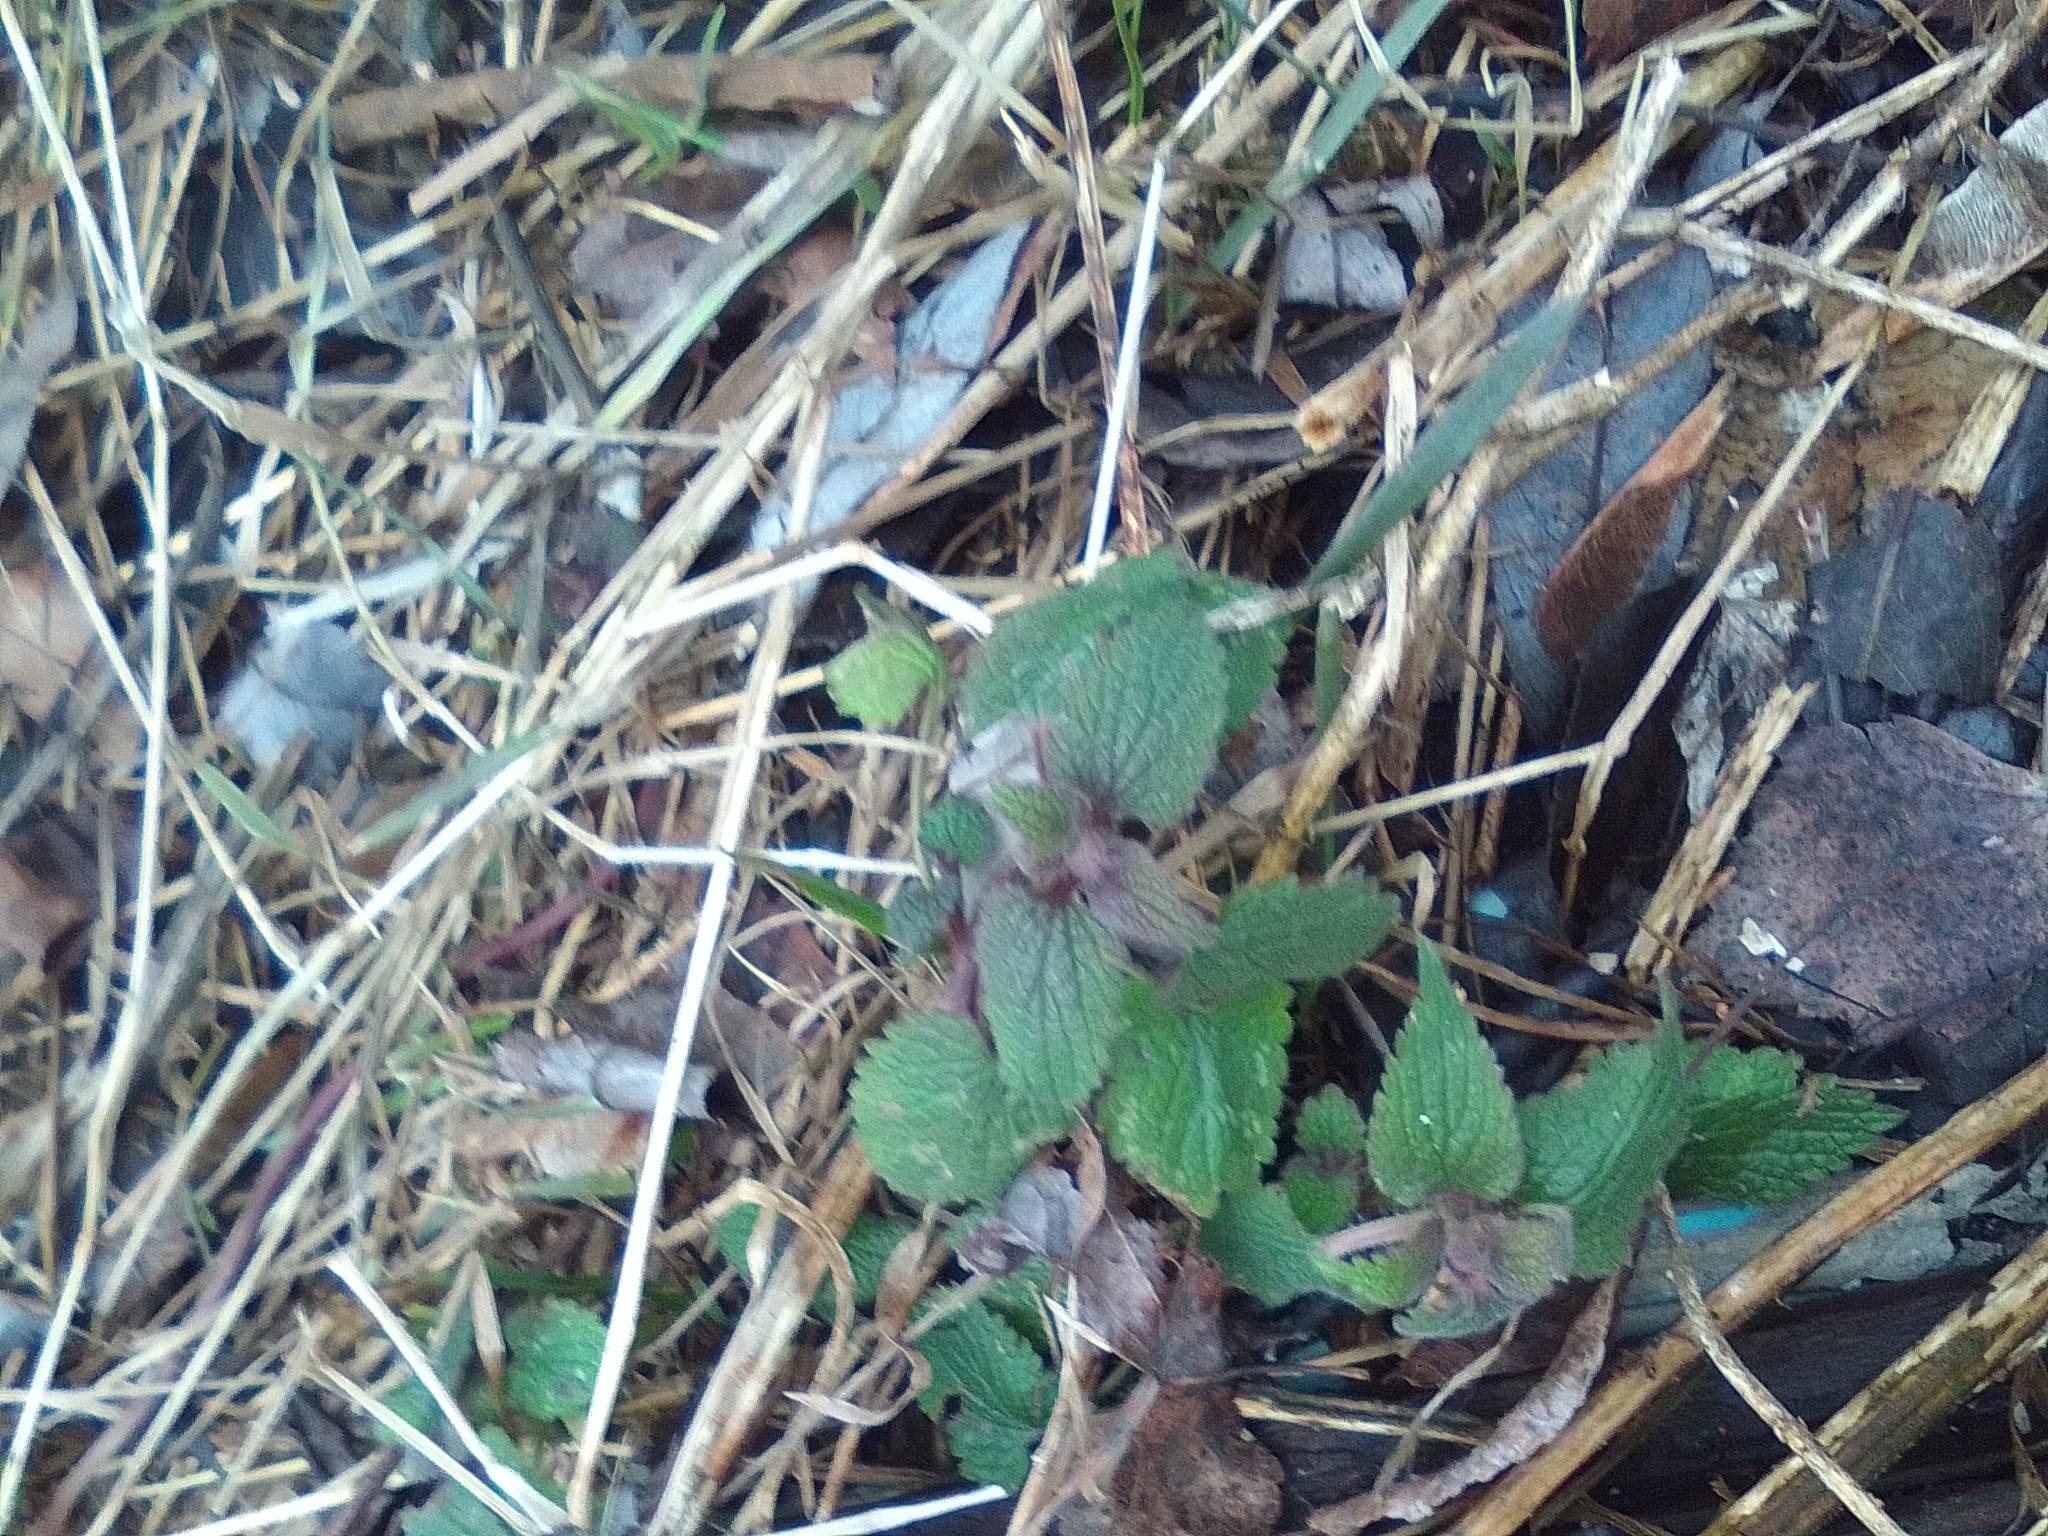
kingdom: Plantae
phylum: Tracheophyta
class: Magnoliopsida
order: Lamiales
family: Lamiaceae
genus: Lamium
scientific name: Lamium album
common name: White dead-nettle
